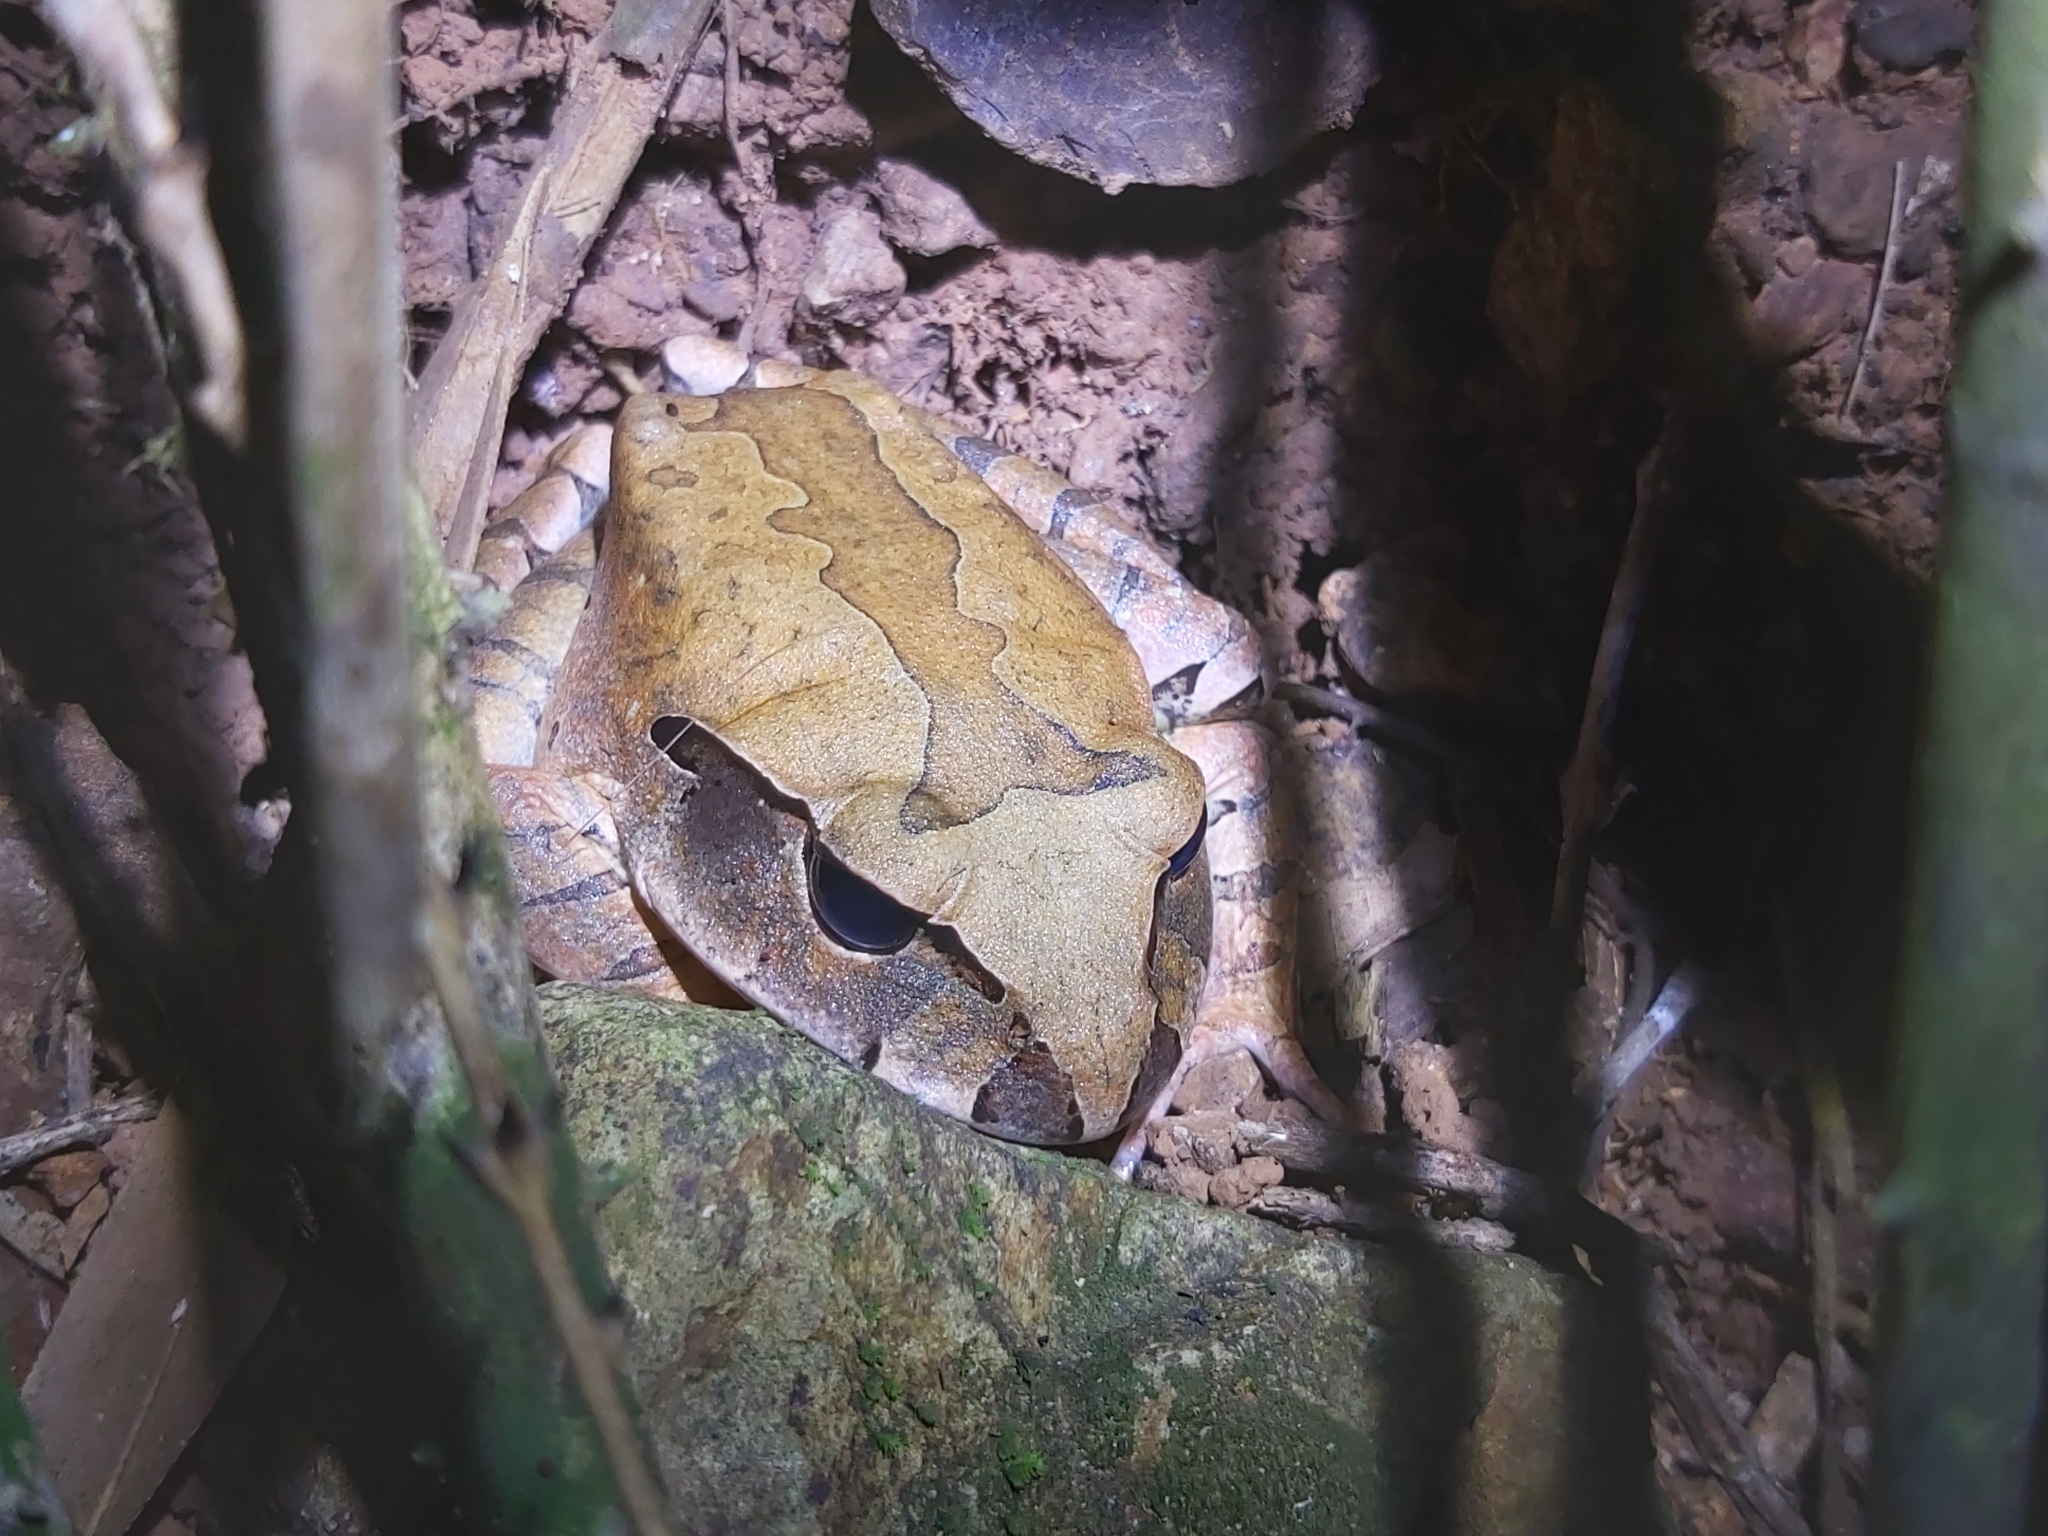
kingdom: Animalia
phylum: Chordata
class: Amphibia
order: Anura
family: Myobatrachidae
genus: Mixophyes
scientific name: Mixophyes schevilli
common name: Northern barred frog
